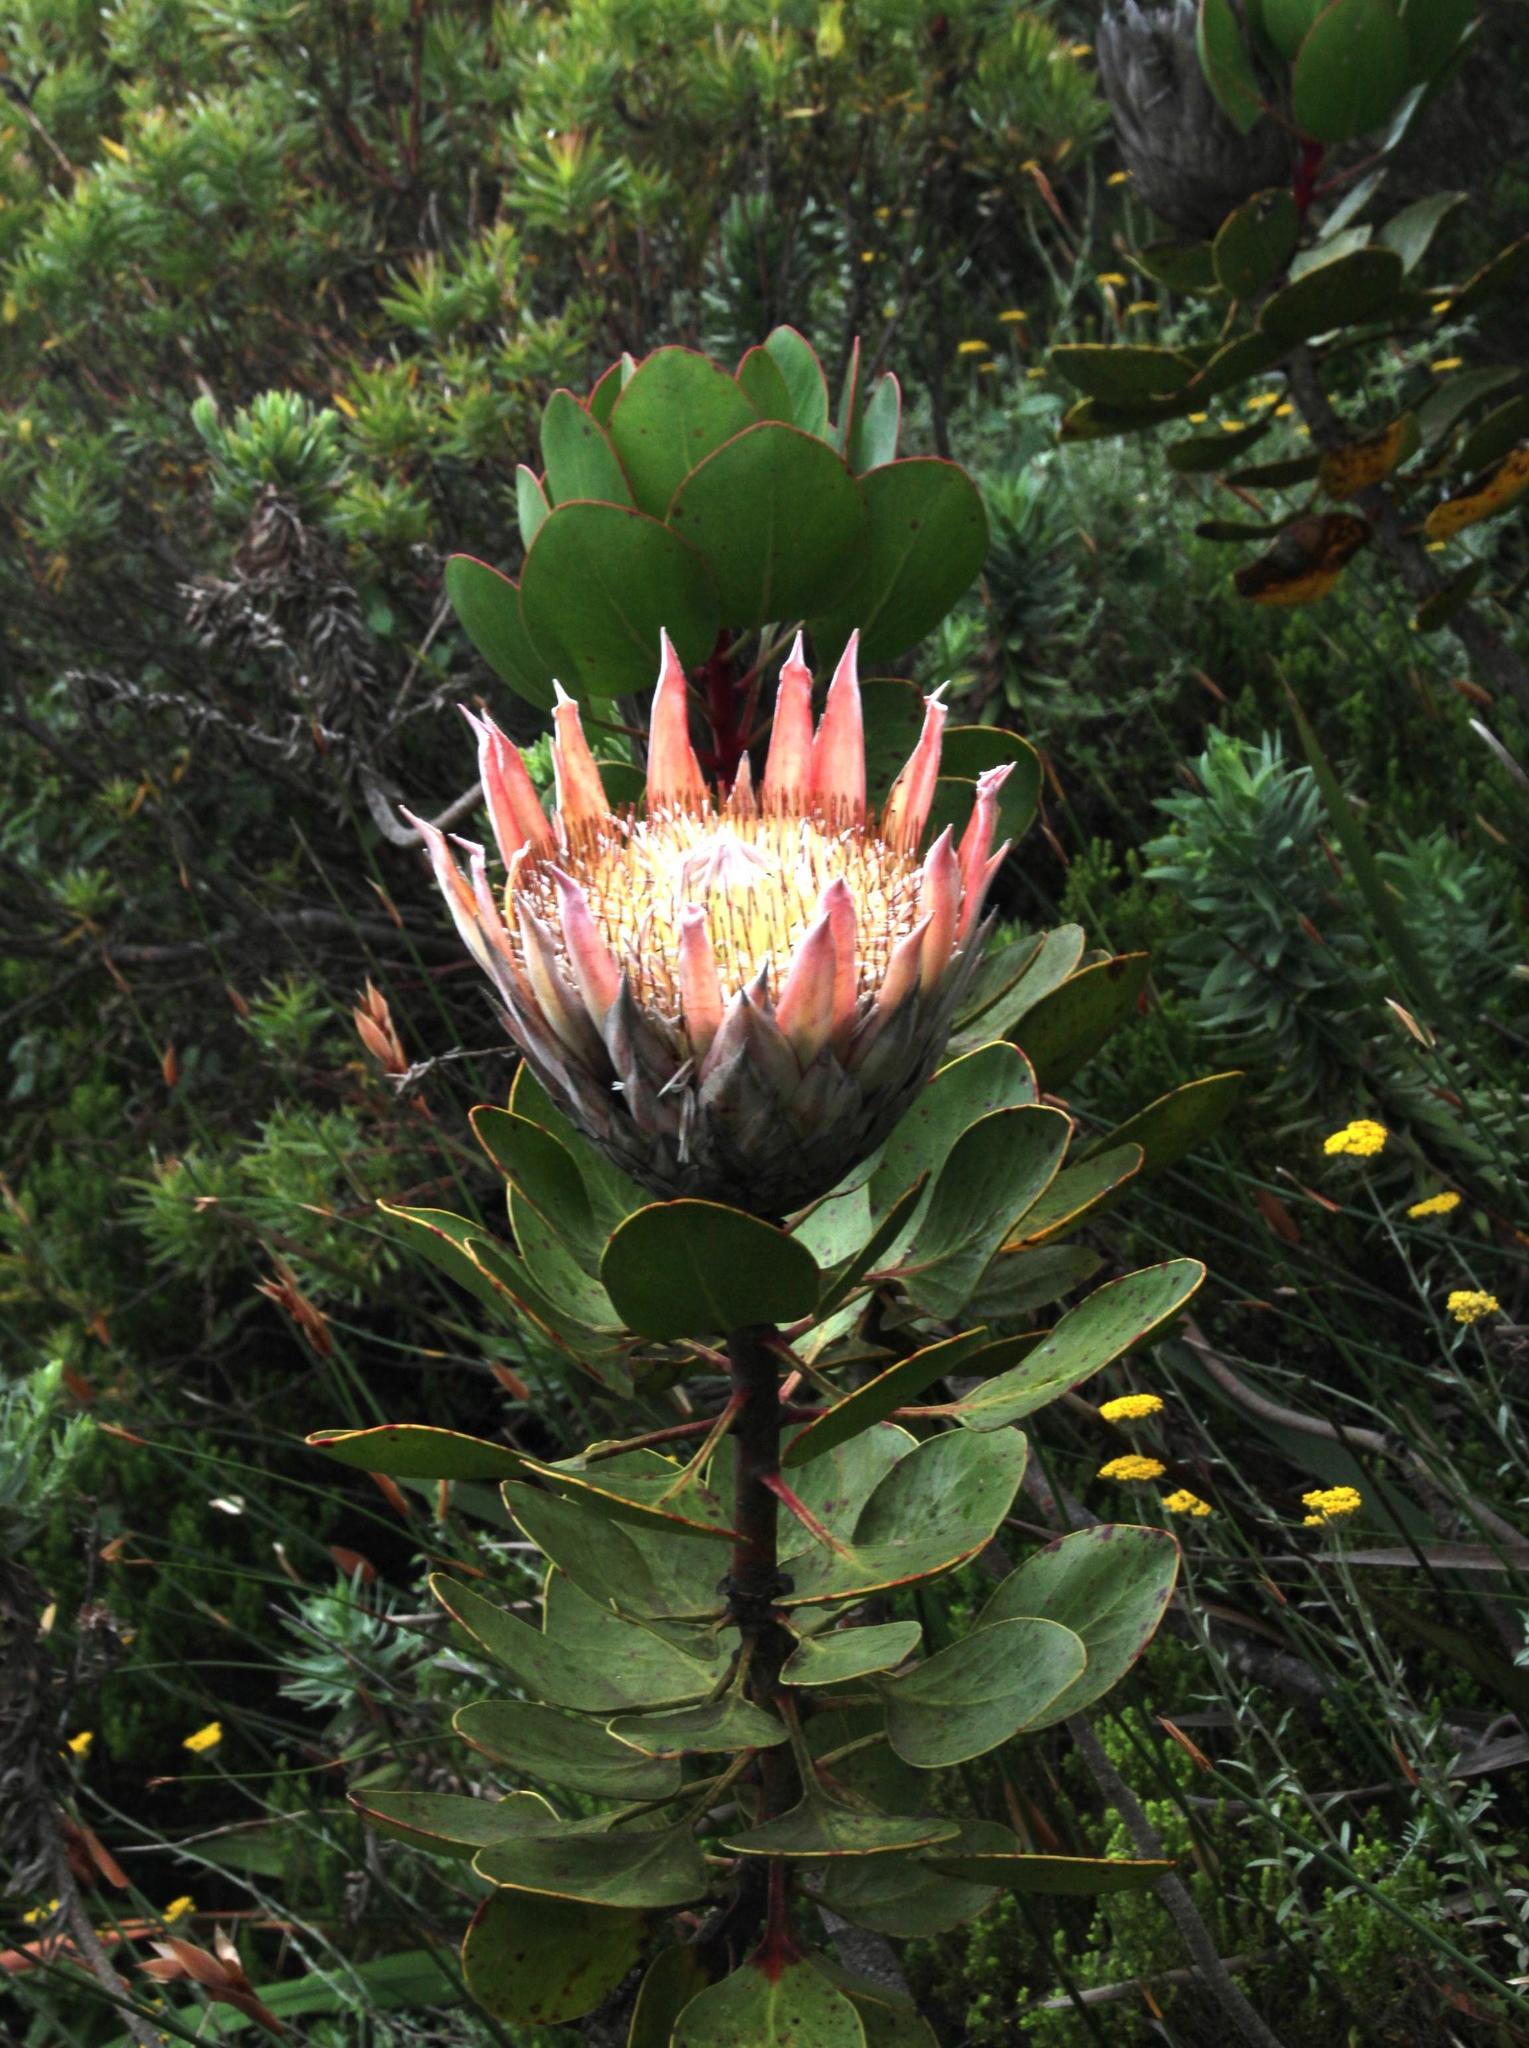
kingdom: Plantae
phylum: Tracheophyta
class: Magnoliopsida
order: Proteales
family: Proteaceae
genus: Protea
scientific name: Protea cynaroides
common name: King protea
